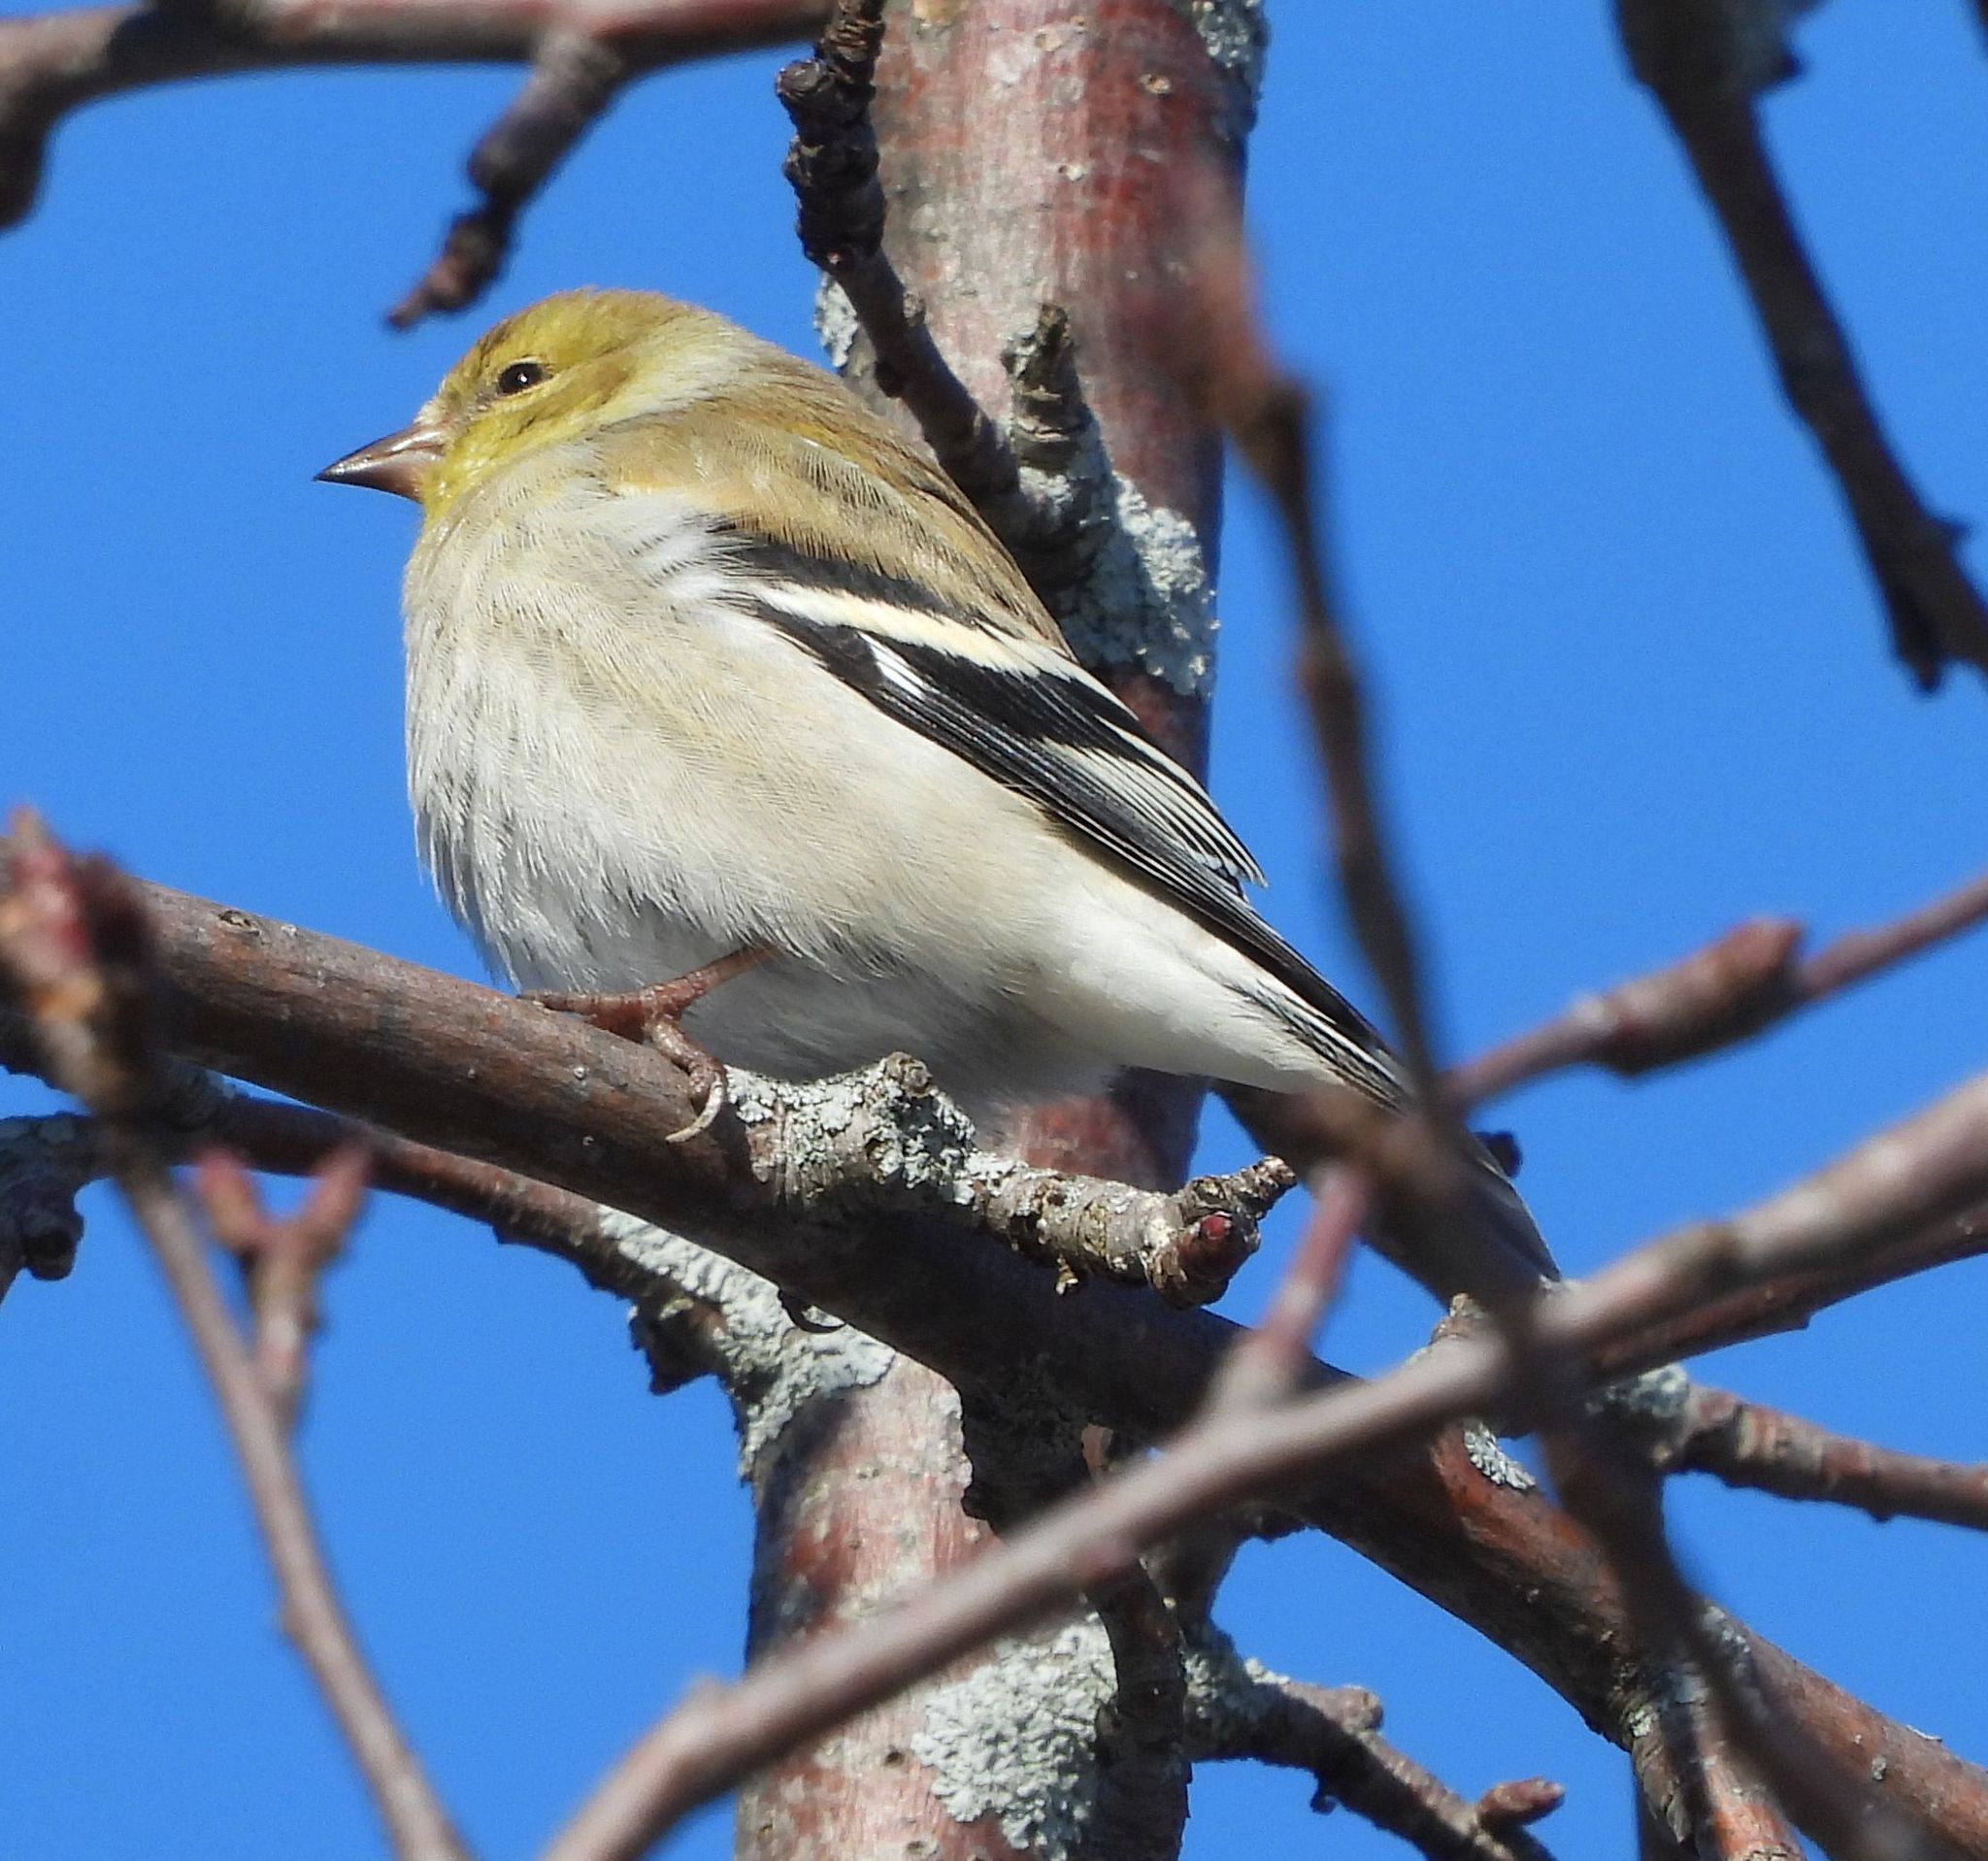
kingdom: Animalia
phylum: Chordata
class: Aves
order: Passeriformes
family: Fringillidae
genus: Spinus
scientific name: Spinus tristis
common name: American goldfinch
